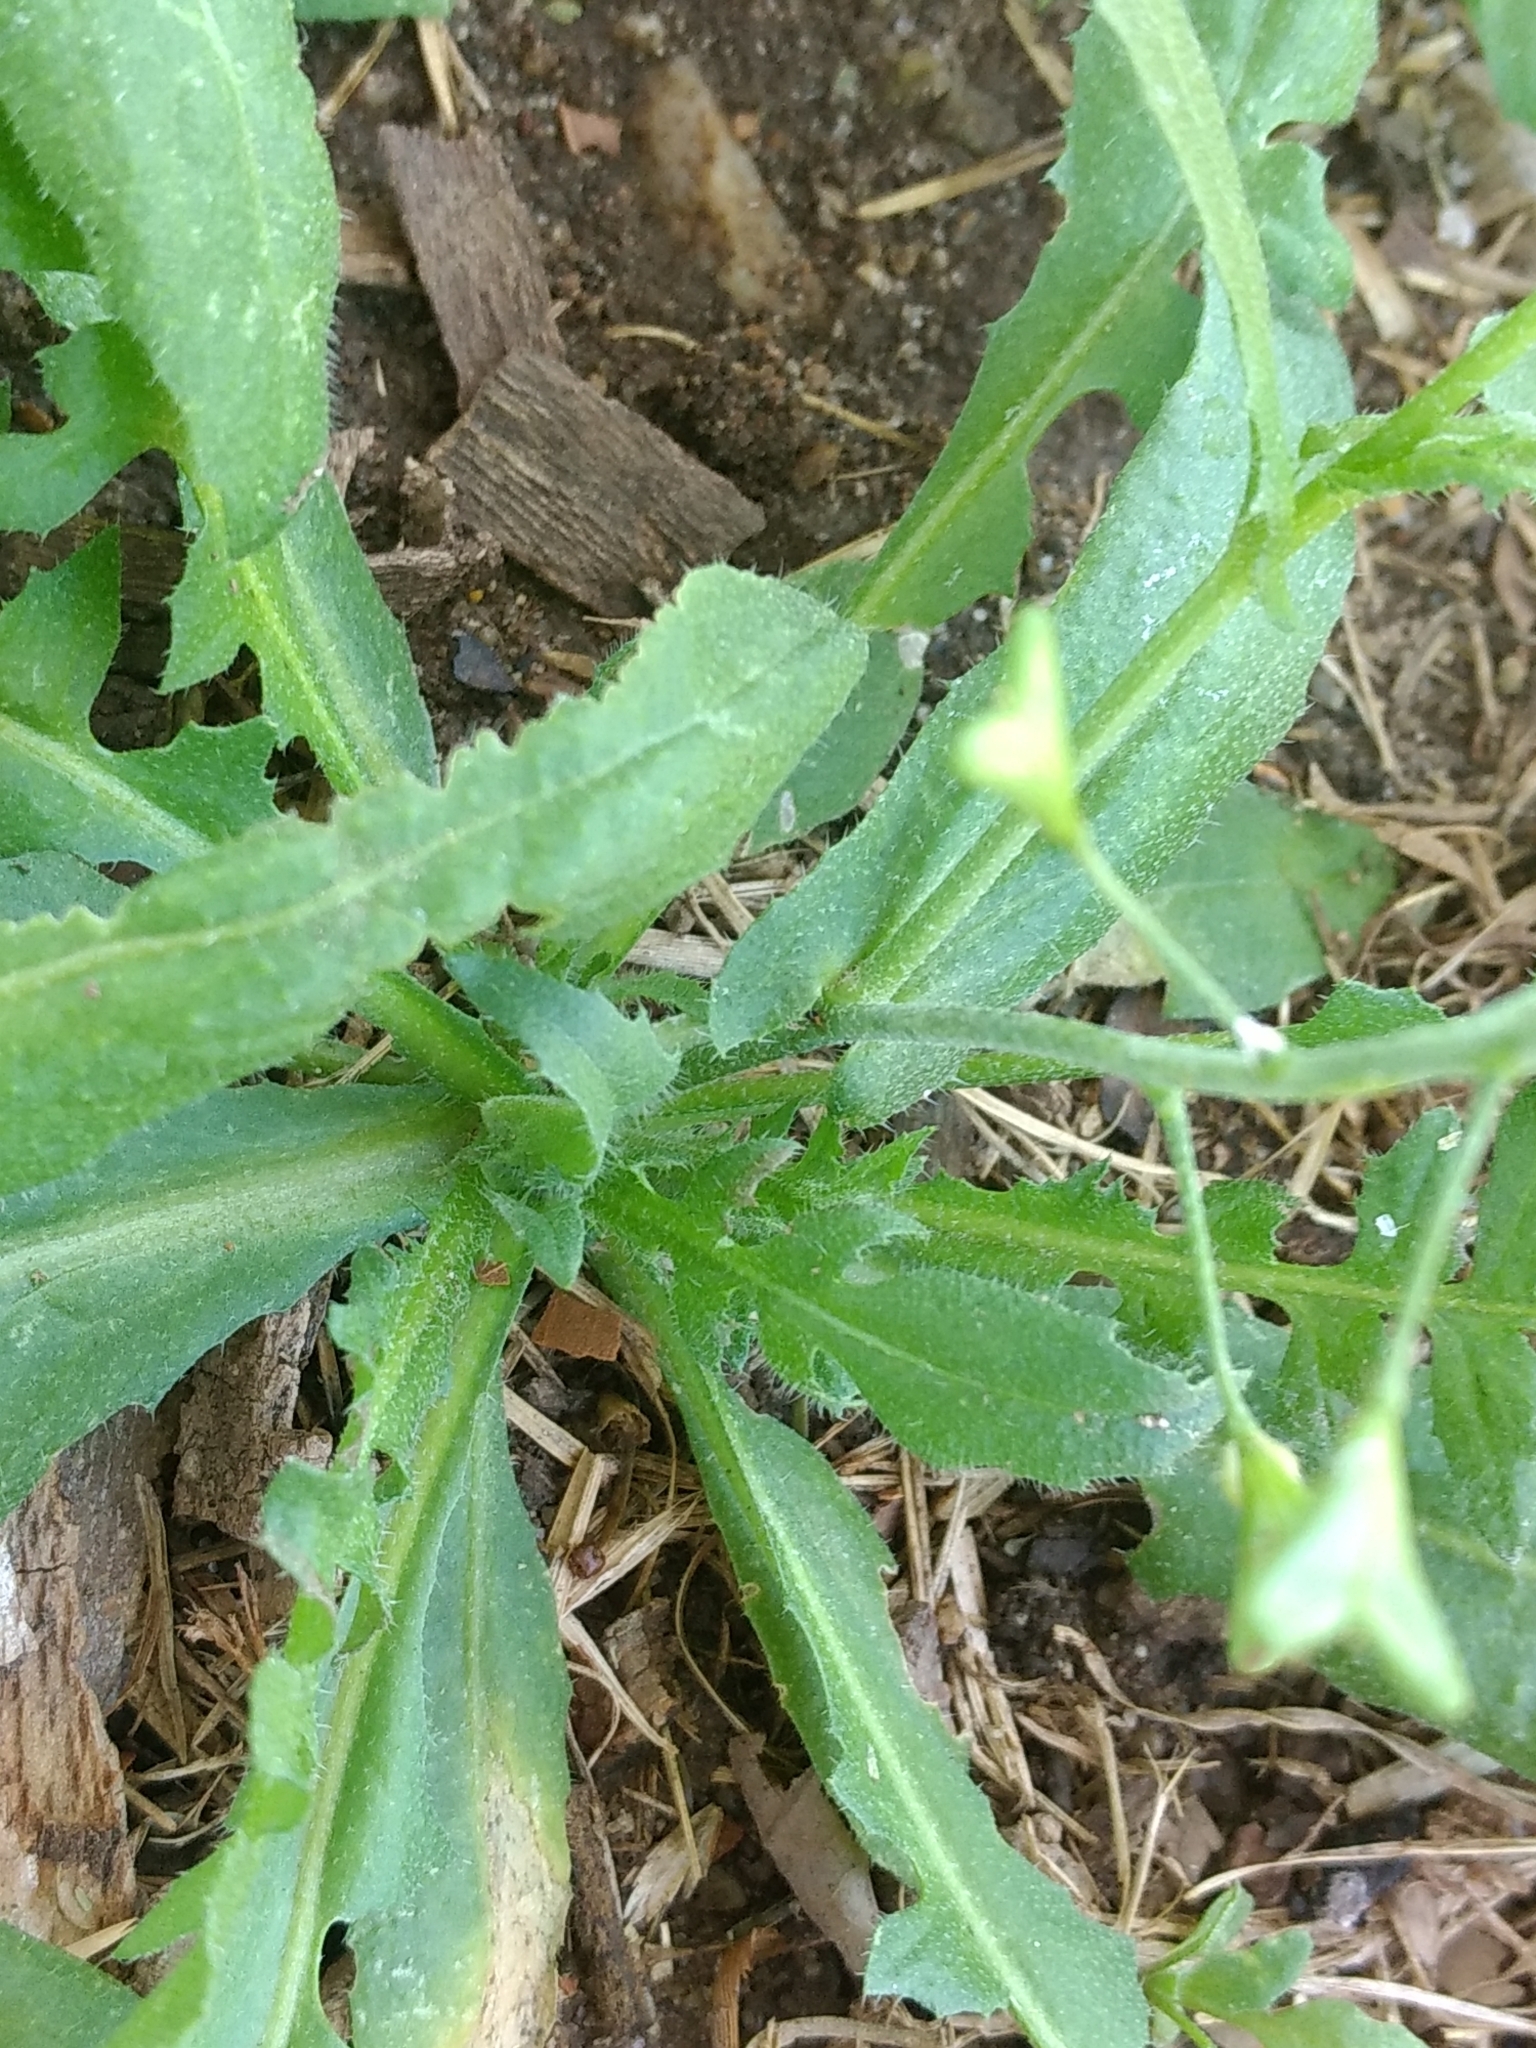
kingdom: Plantae
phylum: Tracheophyta
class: Magnoliopsida
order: Brassicales
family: Brassicaceae
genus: Capsella
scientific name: Capsella bursa-pastoris
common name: Shepherd's purse
